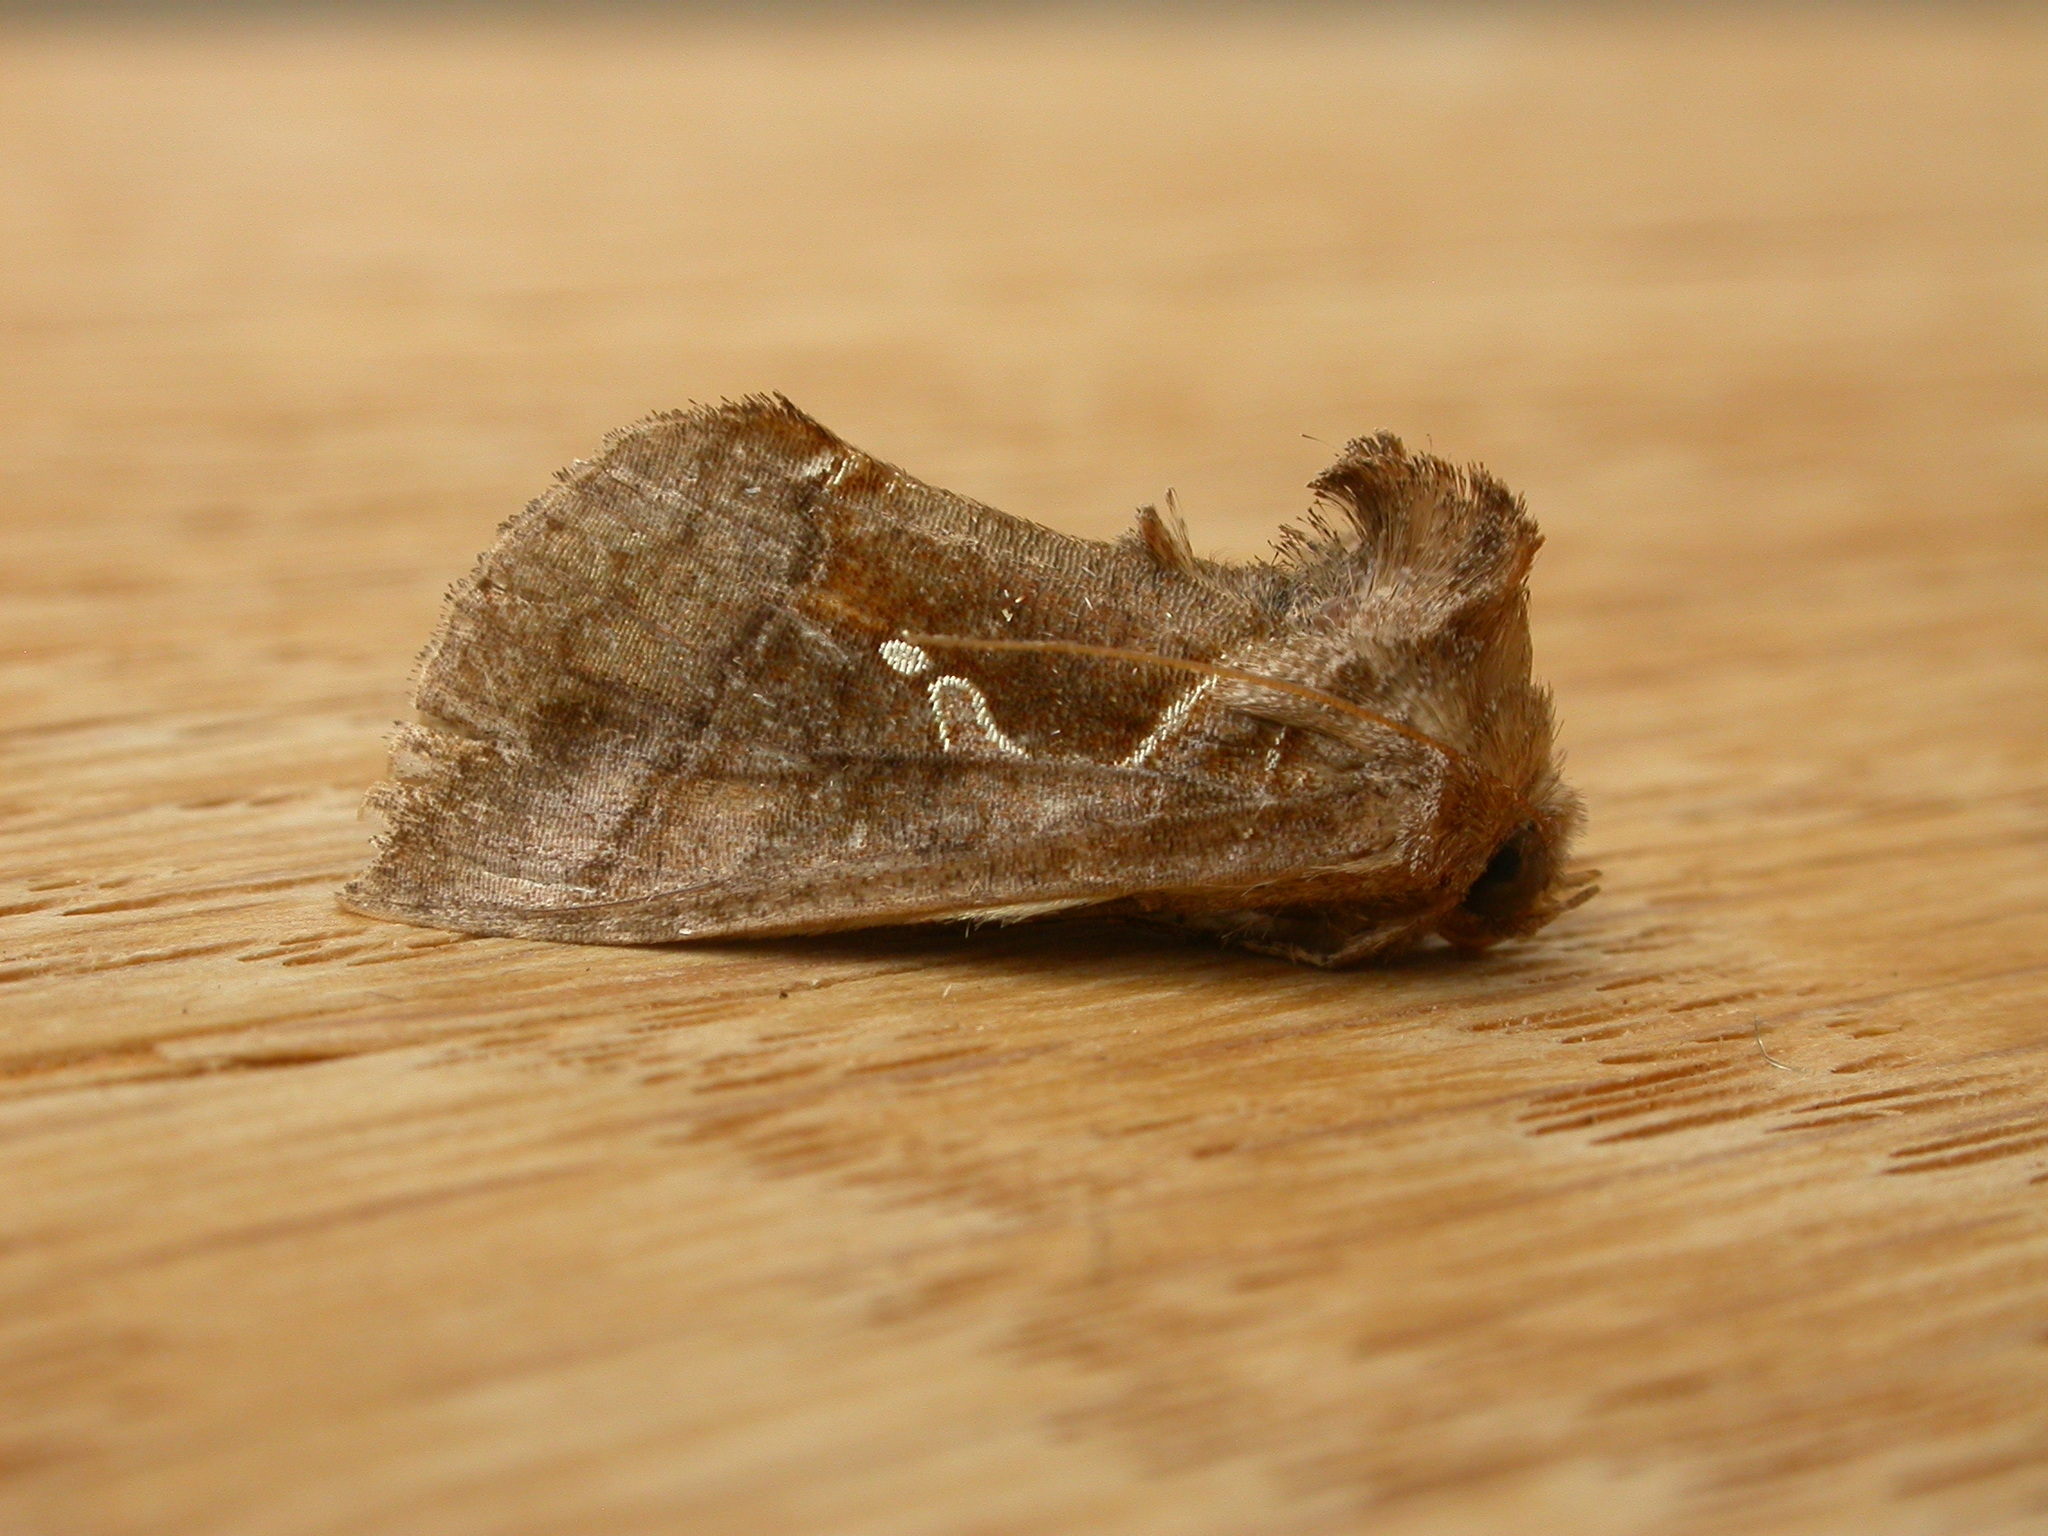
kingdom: Animalia
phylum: Arthropoda
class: Insecta
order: Lepidoptera
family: Noctuidae
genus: Chrysodeixis
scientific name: Chrysodeixis subsidens
